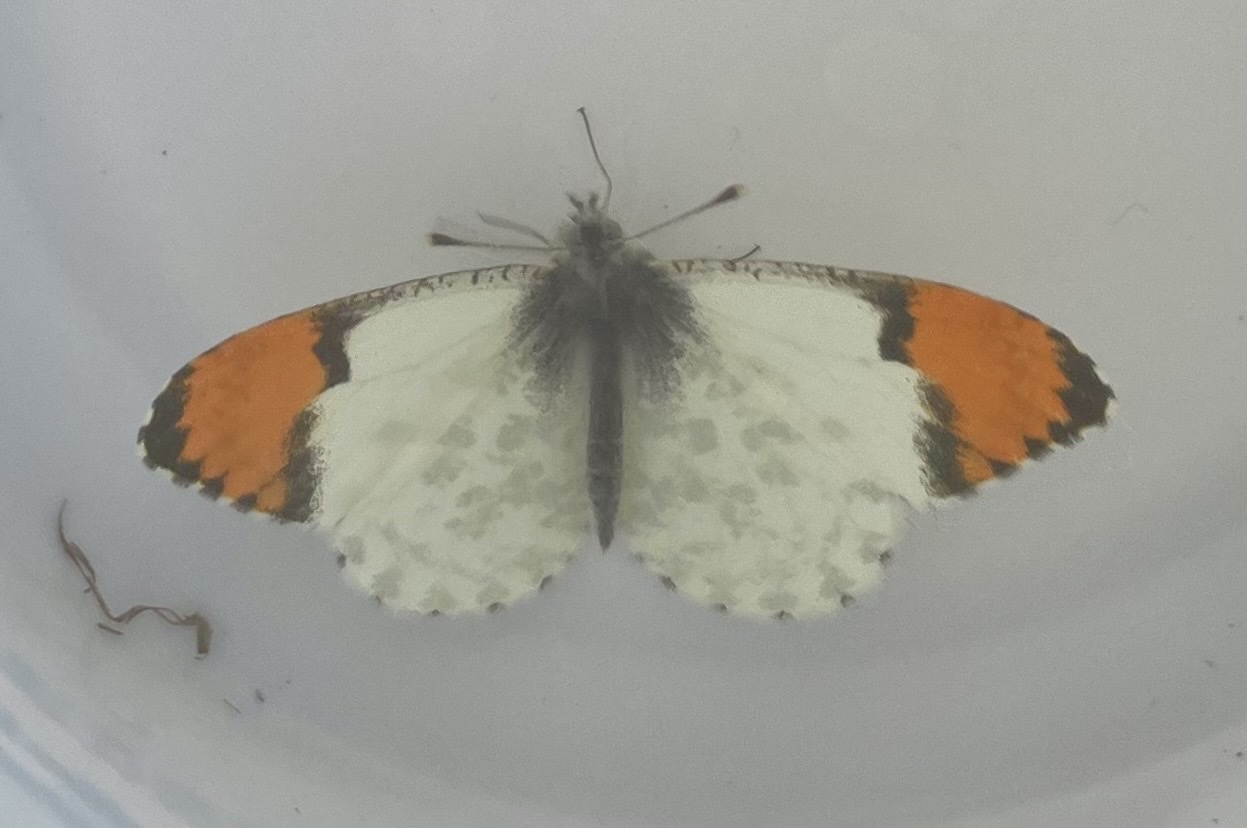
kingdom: Animalia
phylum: Arthropoda
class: Insecta
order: Lepidoptera
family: Pieridae
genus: Anthocharis
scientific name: Anthocharis julia
